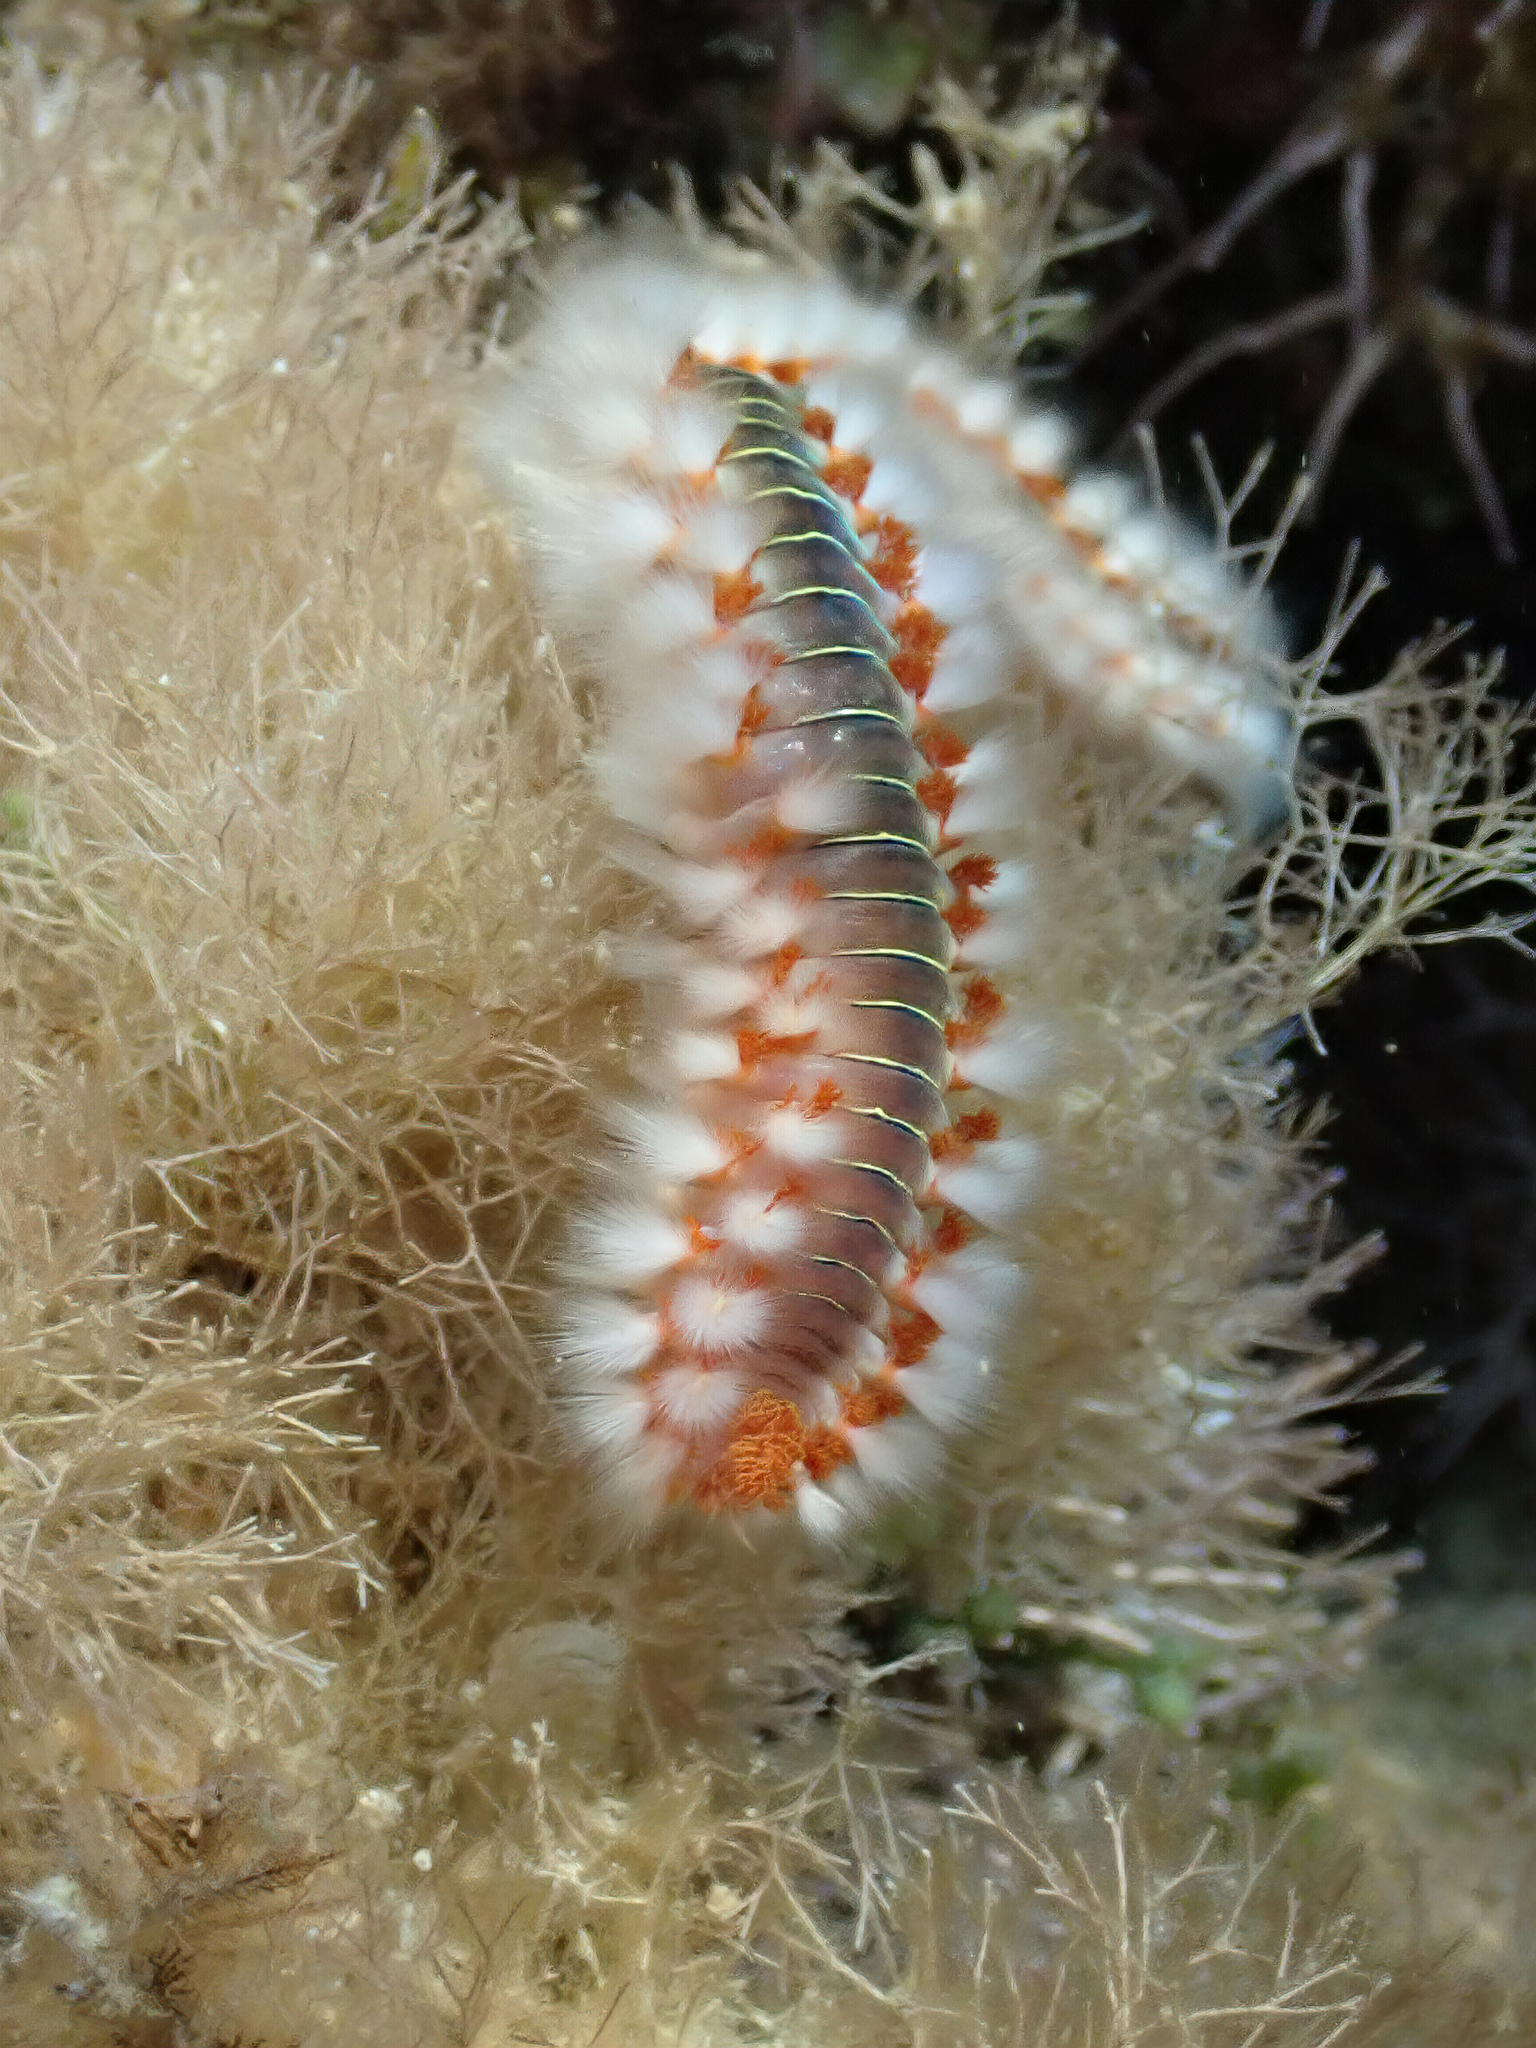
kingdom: Animalia
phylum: Annelida
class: Polychaeta
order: Amphinomida
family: Amphinomidae
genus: Hermodice
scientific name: Hermodice carunculata
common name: Bearded fireworm
